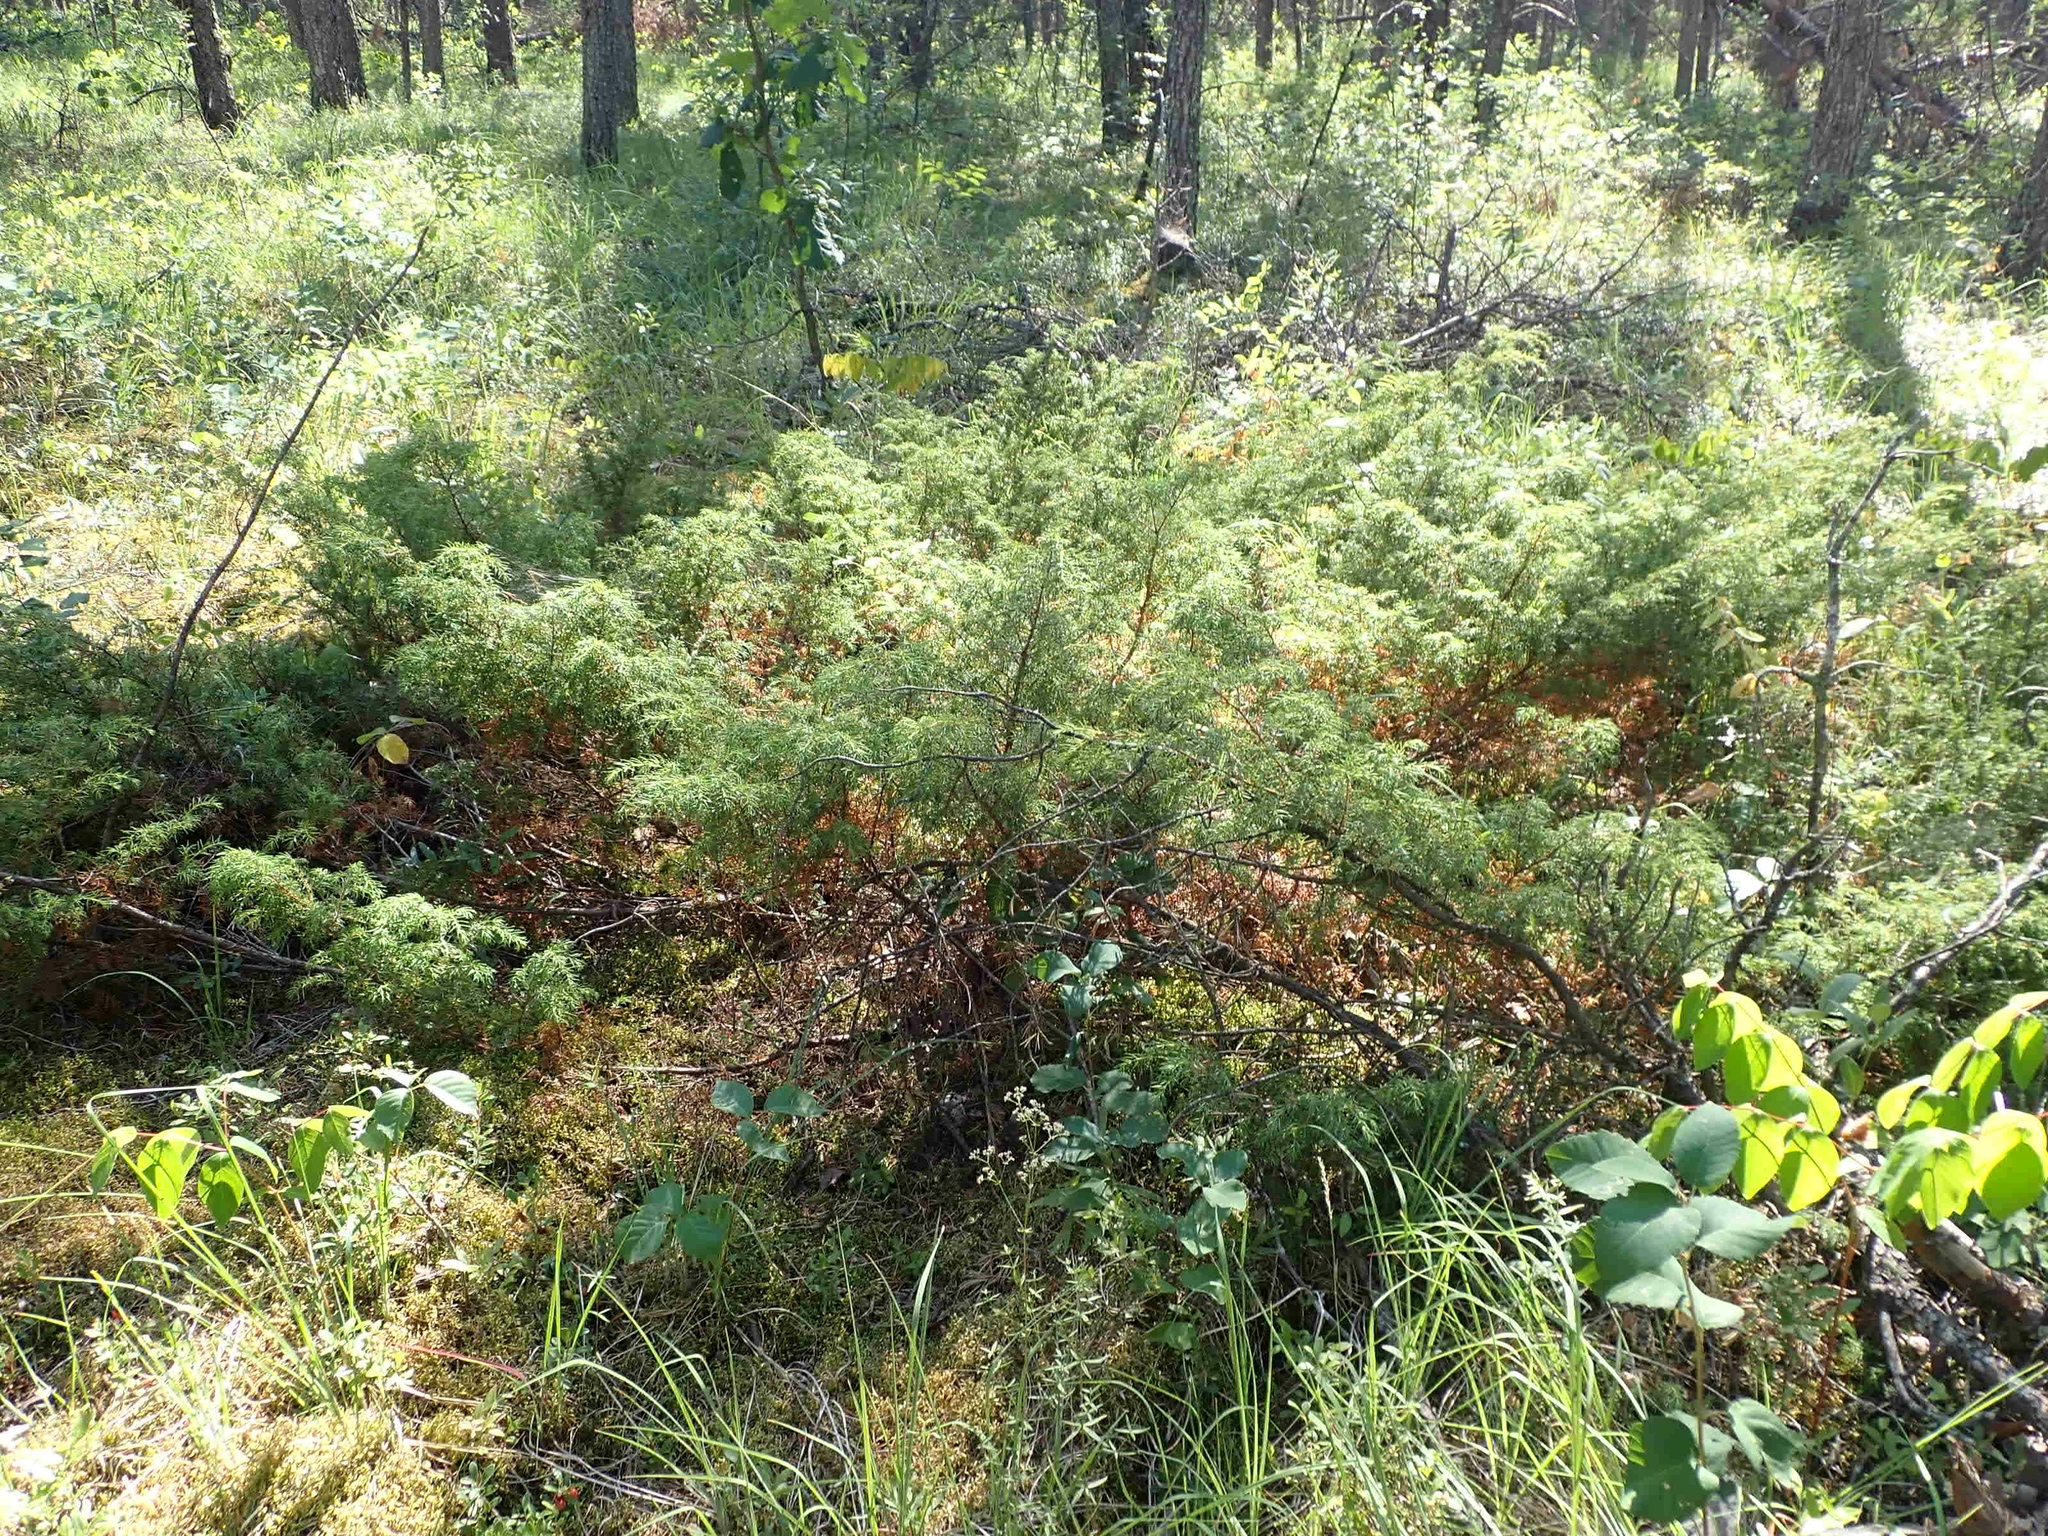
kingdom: Plantae
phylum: Tracheophyta
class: Pinopsida
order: Pinales
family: Cupressaceae
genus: Juniperus
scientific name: Juniperus communis
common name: Common juniper
